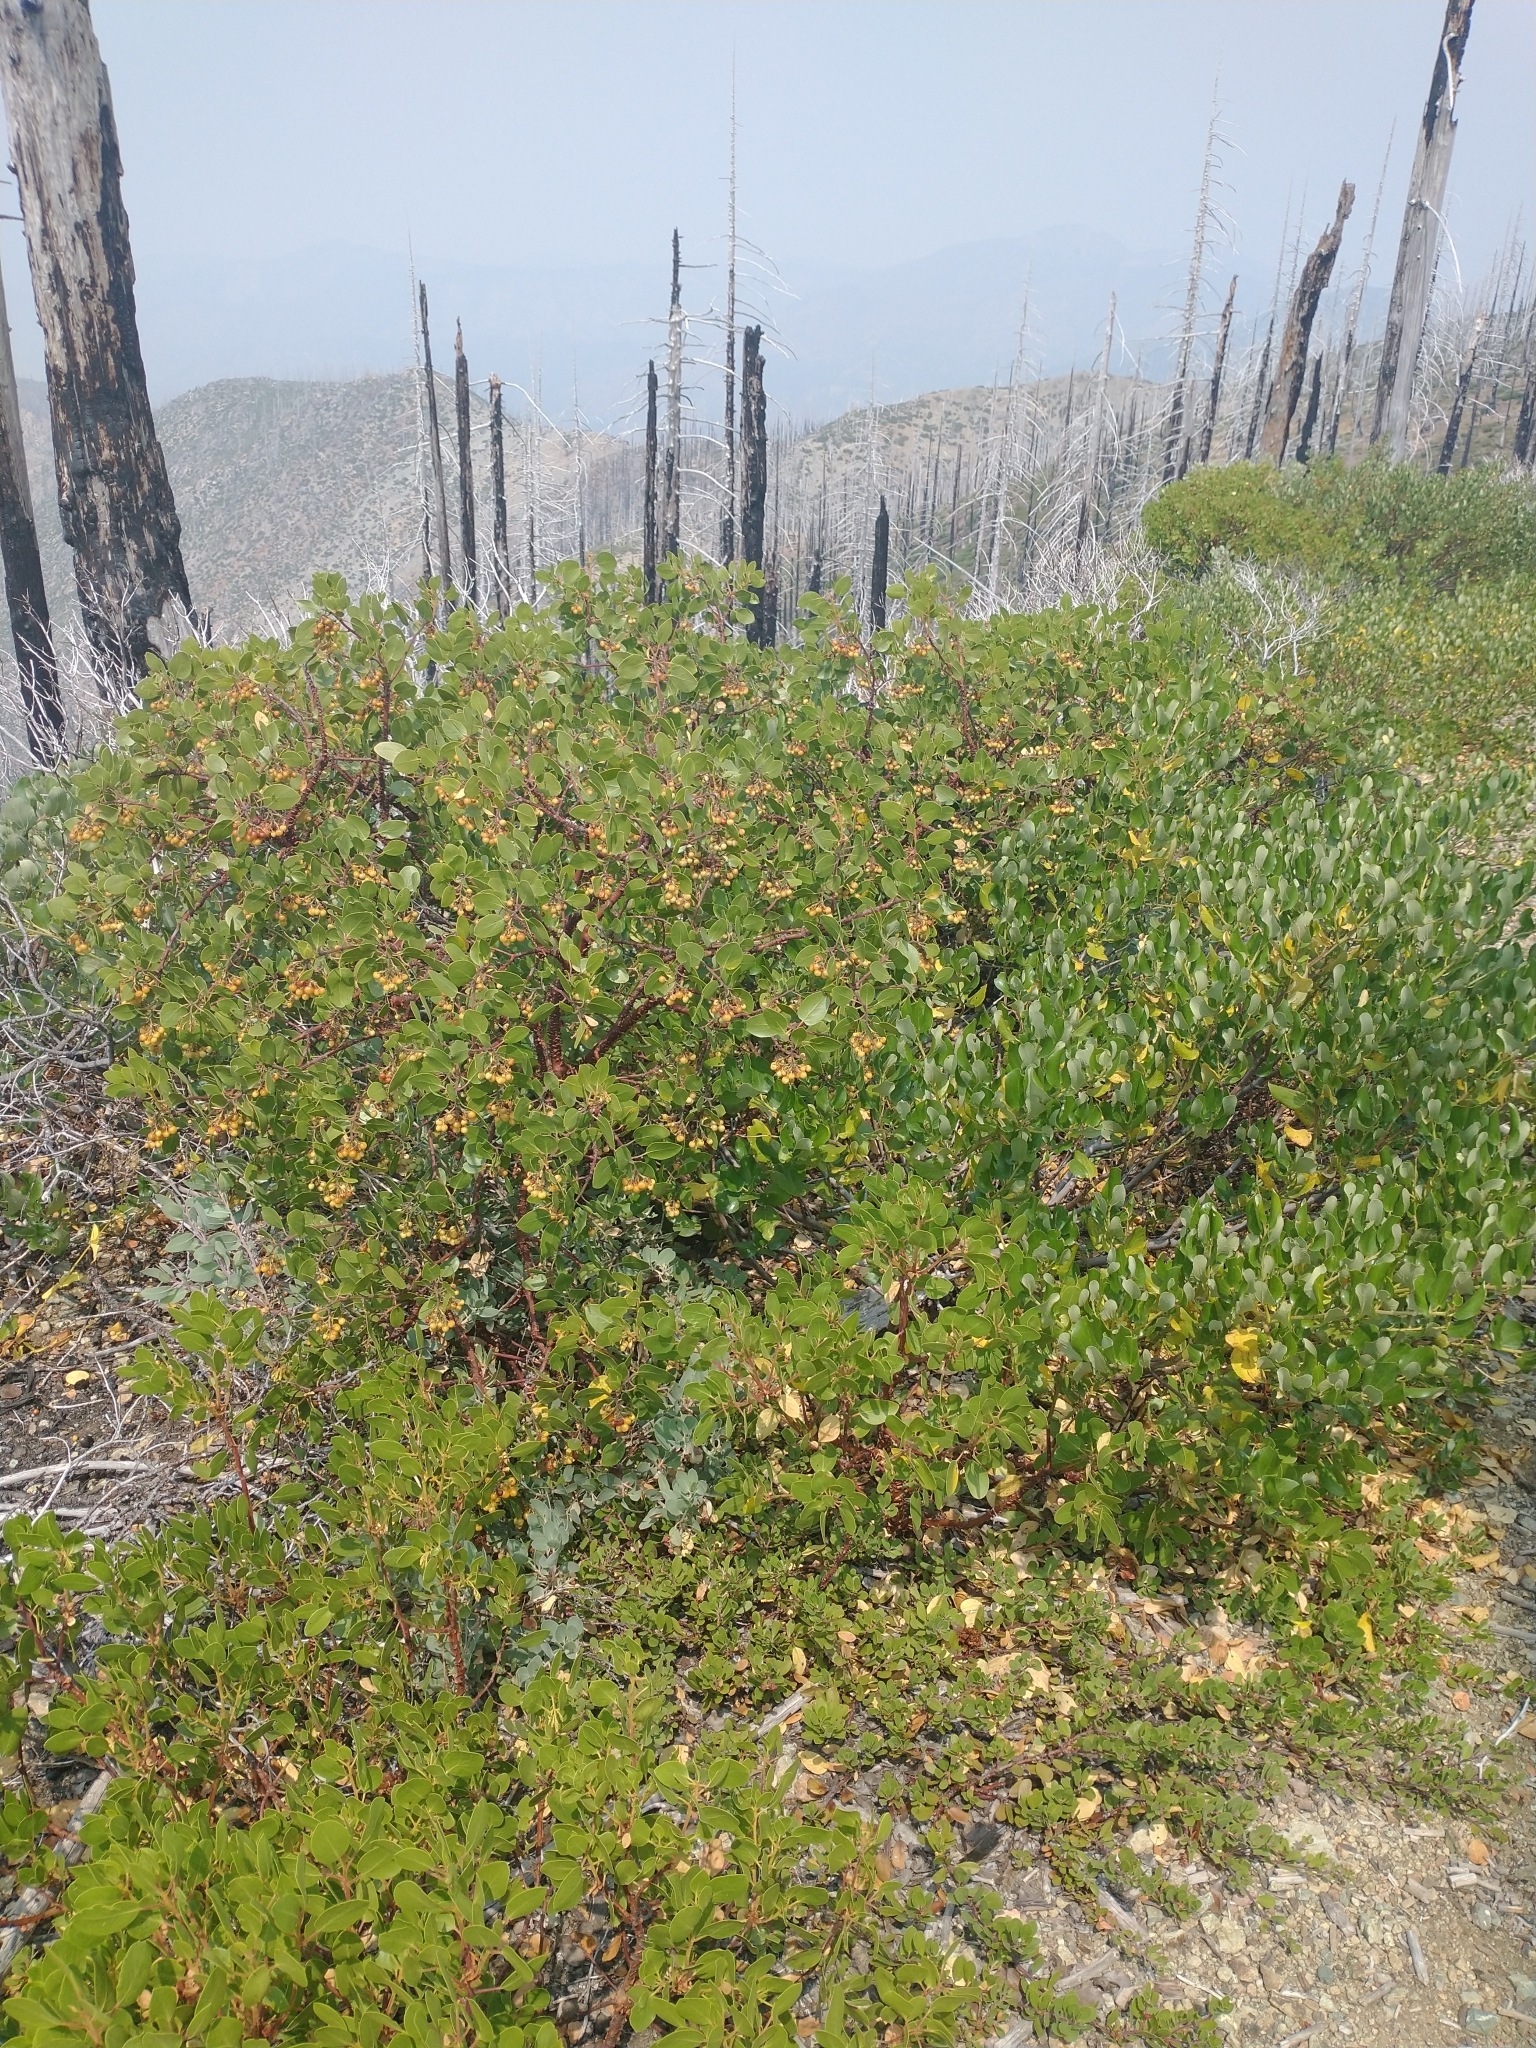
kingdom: Plantae
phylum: Tracheophyta
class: Magnoliopsida
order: Rosales
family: Rhamnaceae
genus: Ceanothus
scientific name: Ceanothus velutinus
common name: Snowbrush
